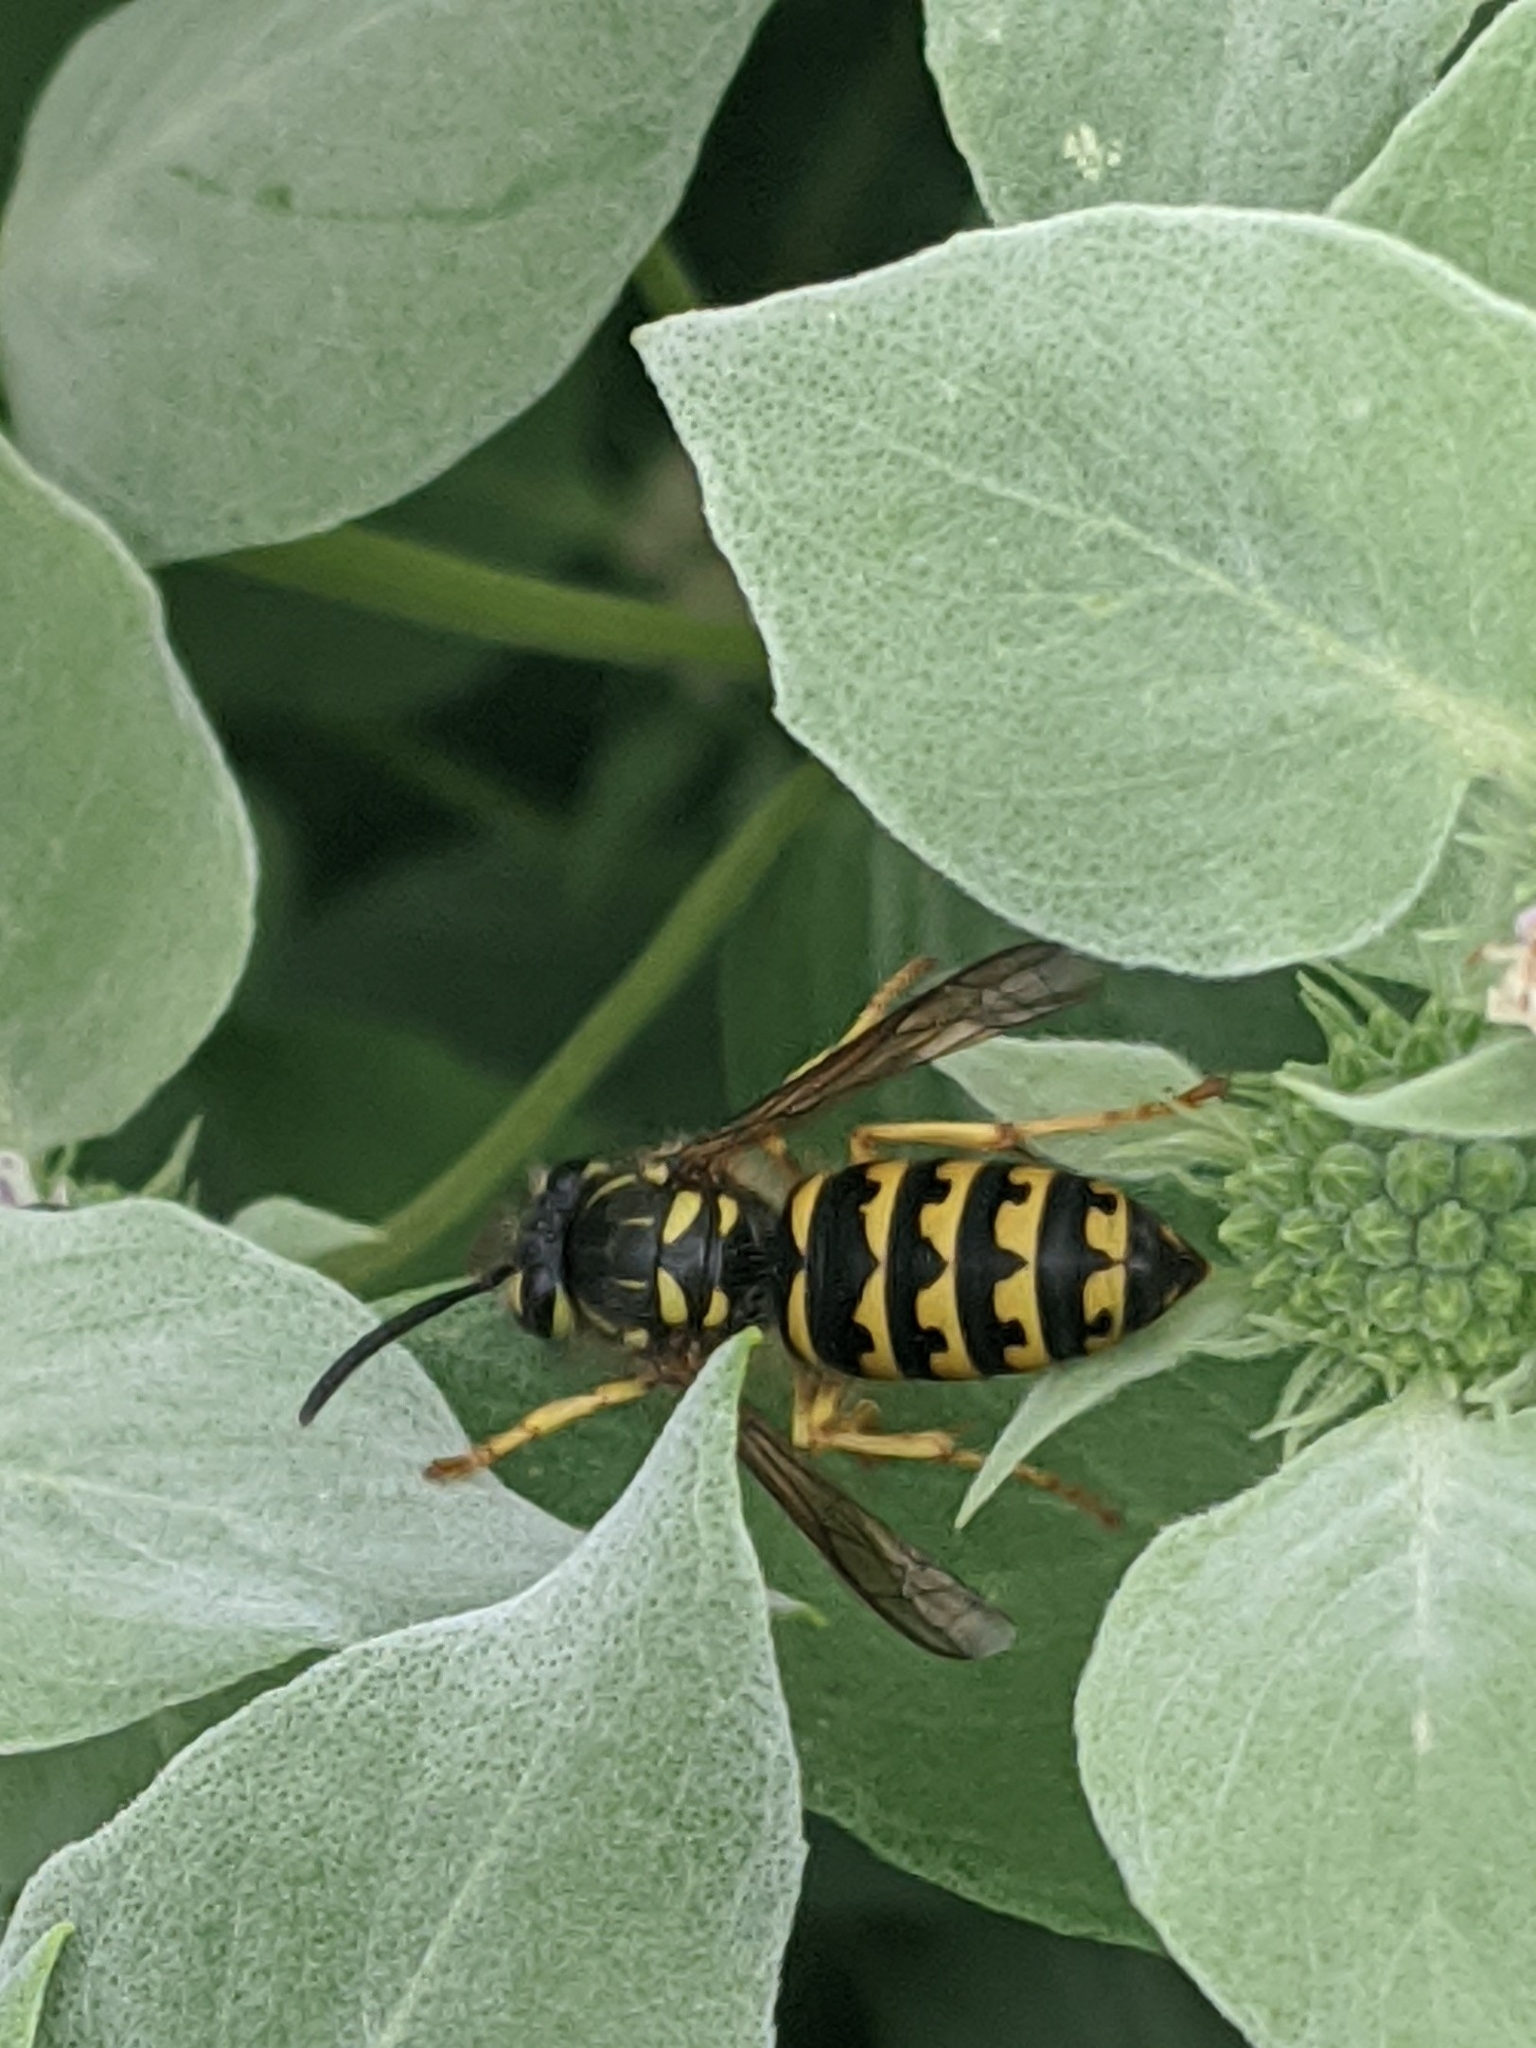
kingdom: Animalia
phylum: Arthropoda
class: Insecta
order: Hymenoptera
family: Vespidae
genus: Dolichovespula
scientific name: Dolichovespula arenaria
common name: Aerial yellowjacket
